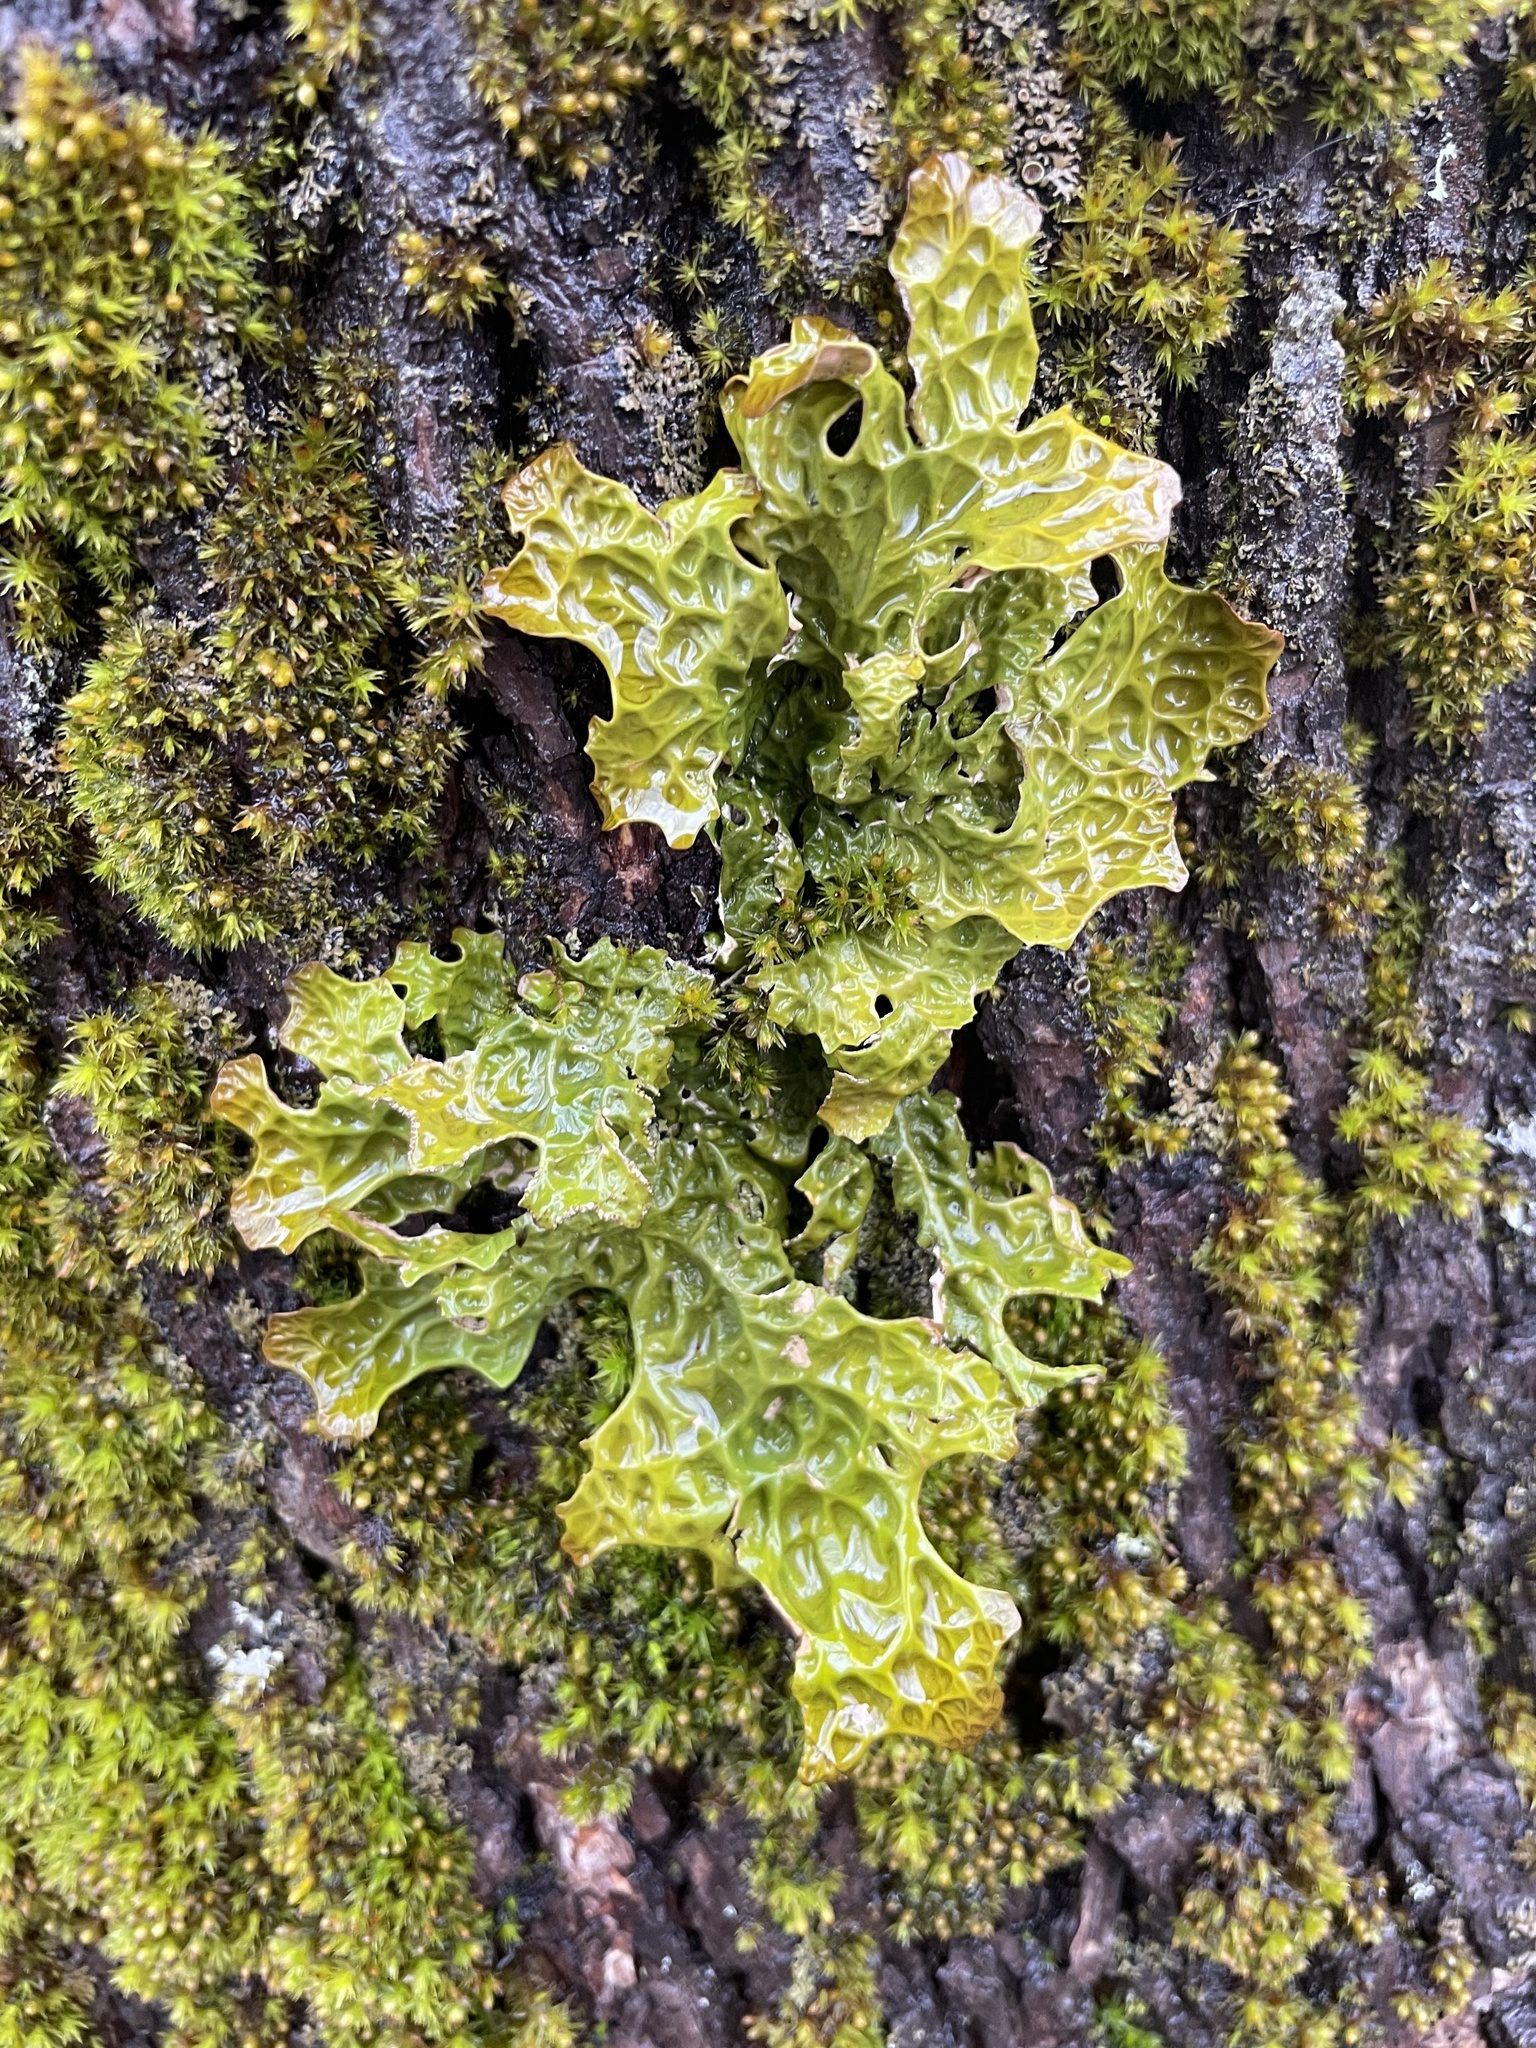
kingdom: Fungi
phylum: Ascomycota
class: Lecanoromycetes
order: Peltigerales
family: Lobariaceae
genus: Lobaria
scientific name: Lobaria pulmonaria
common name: Lungwort
